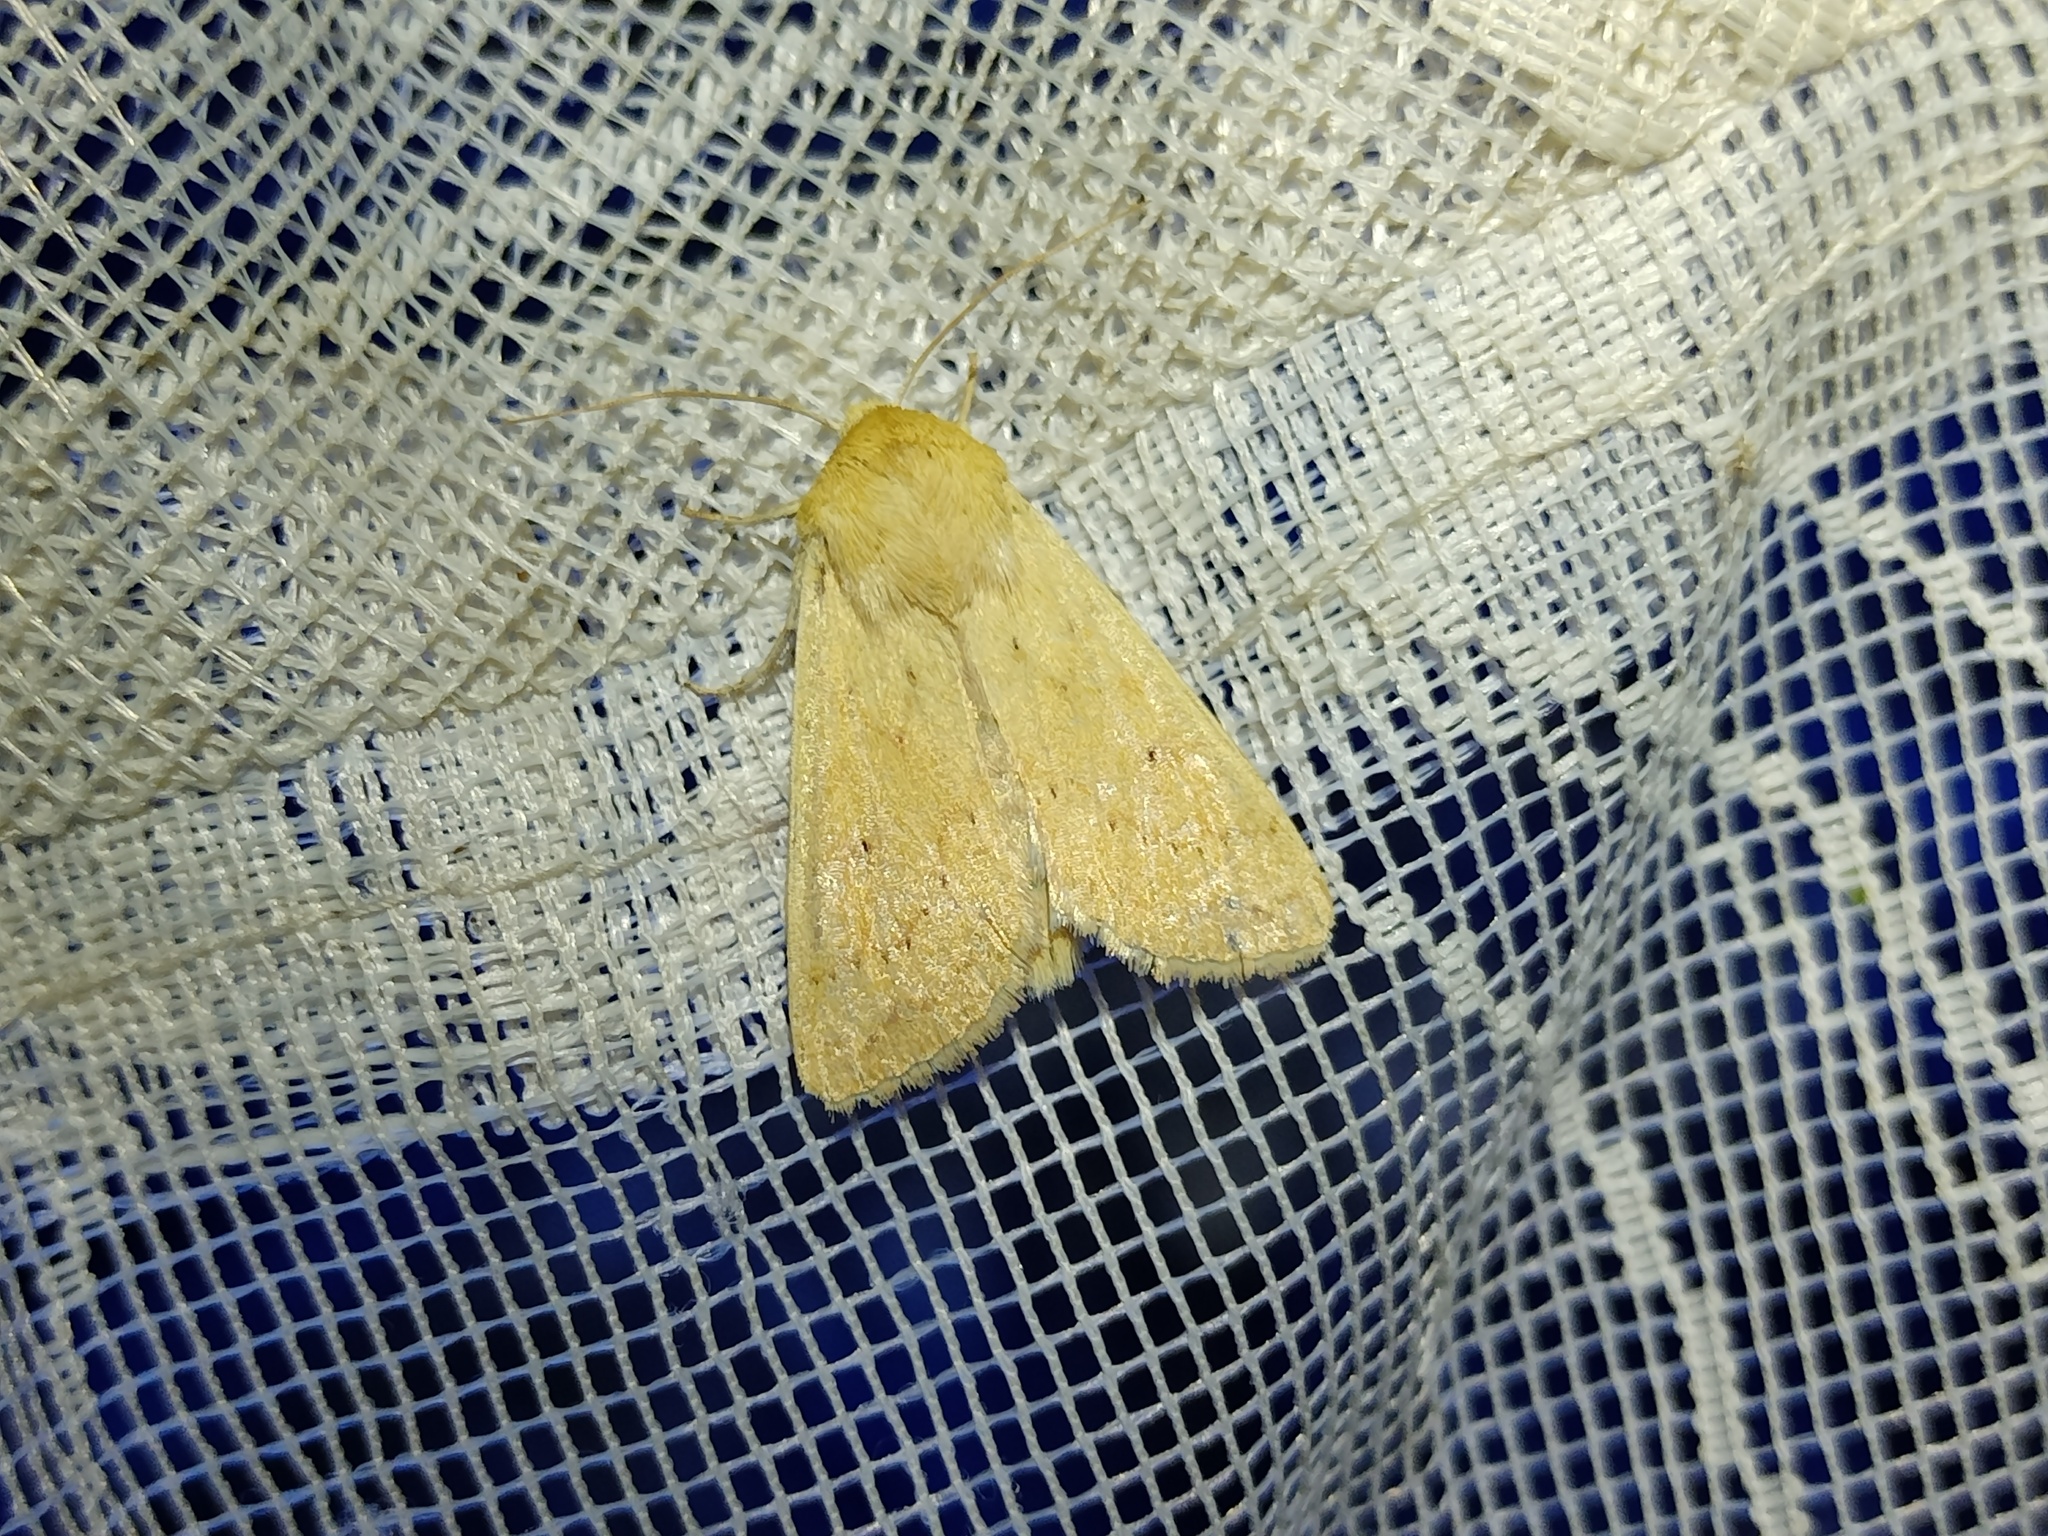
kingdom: Animalia
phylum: Arthropoda
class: Insecta
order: Lepidoptera
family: Noctuidae
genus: Mythimna
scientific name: Mythimna vitellina
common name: Delicate
